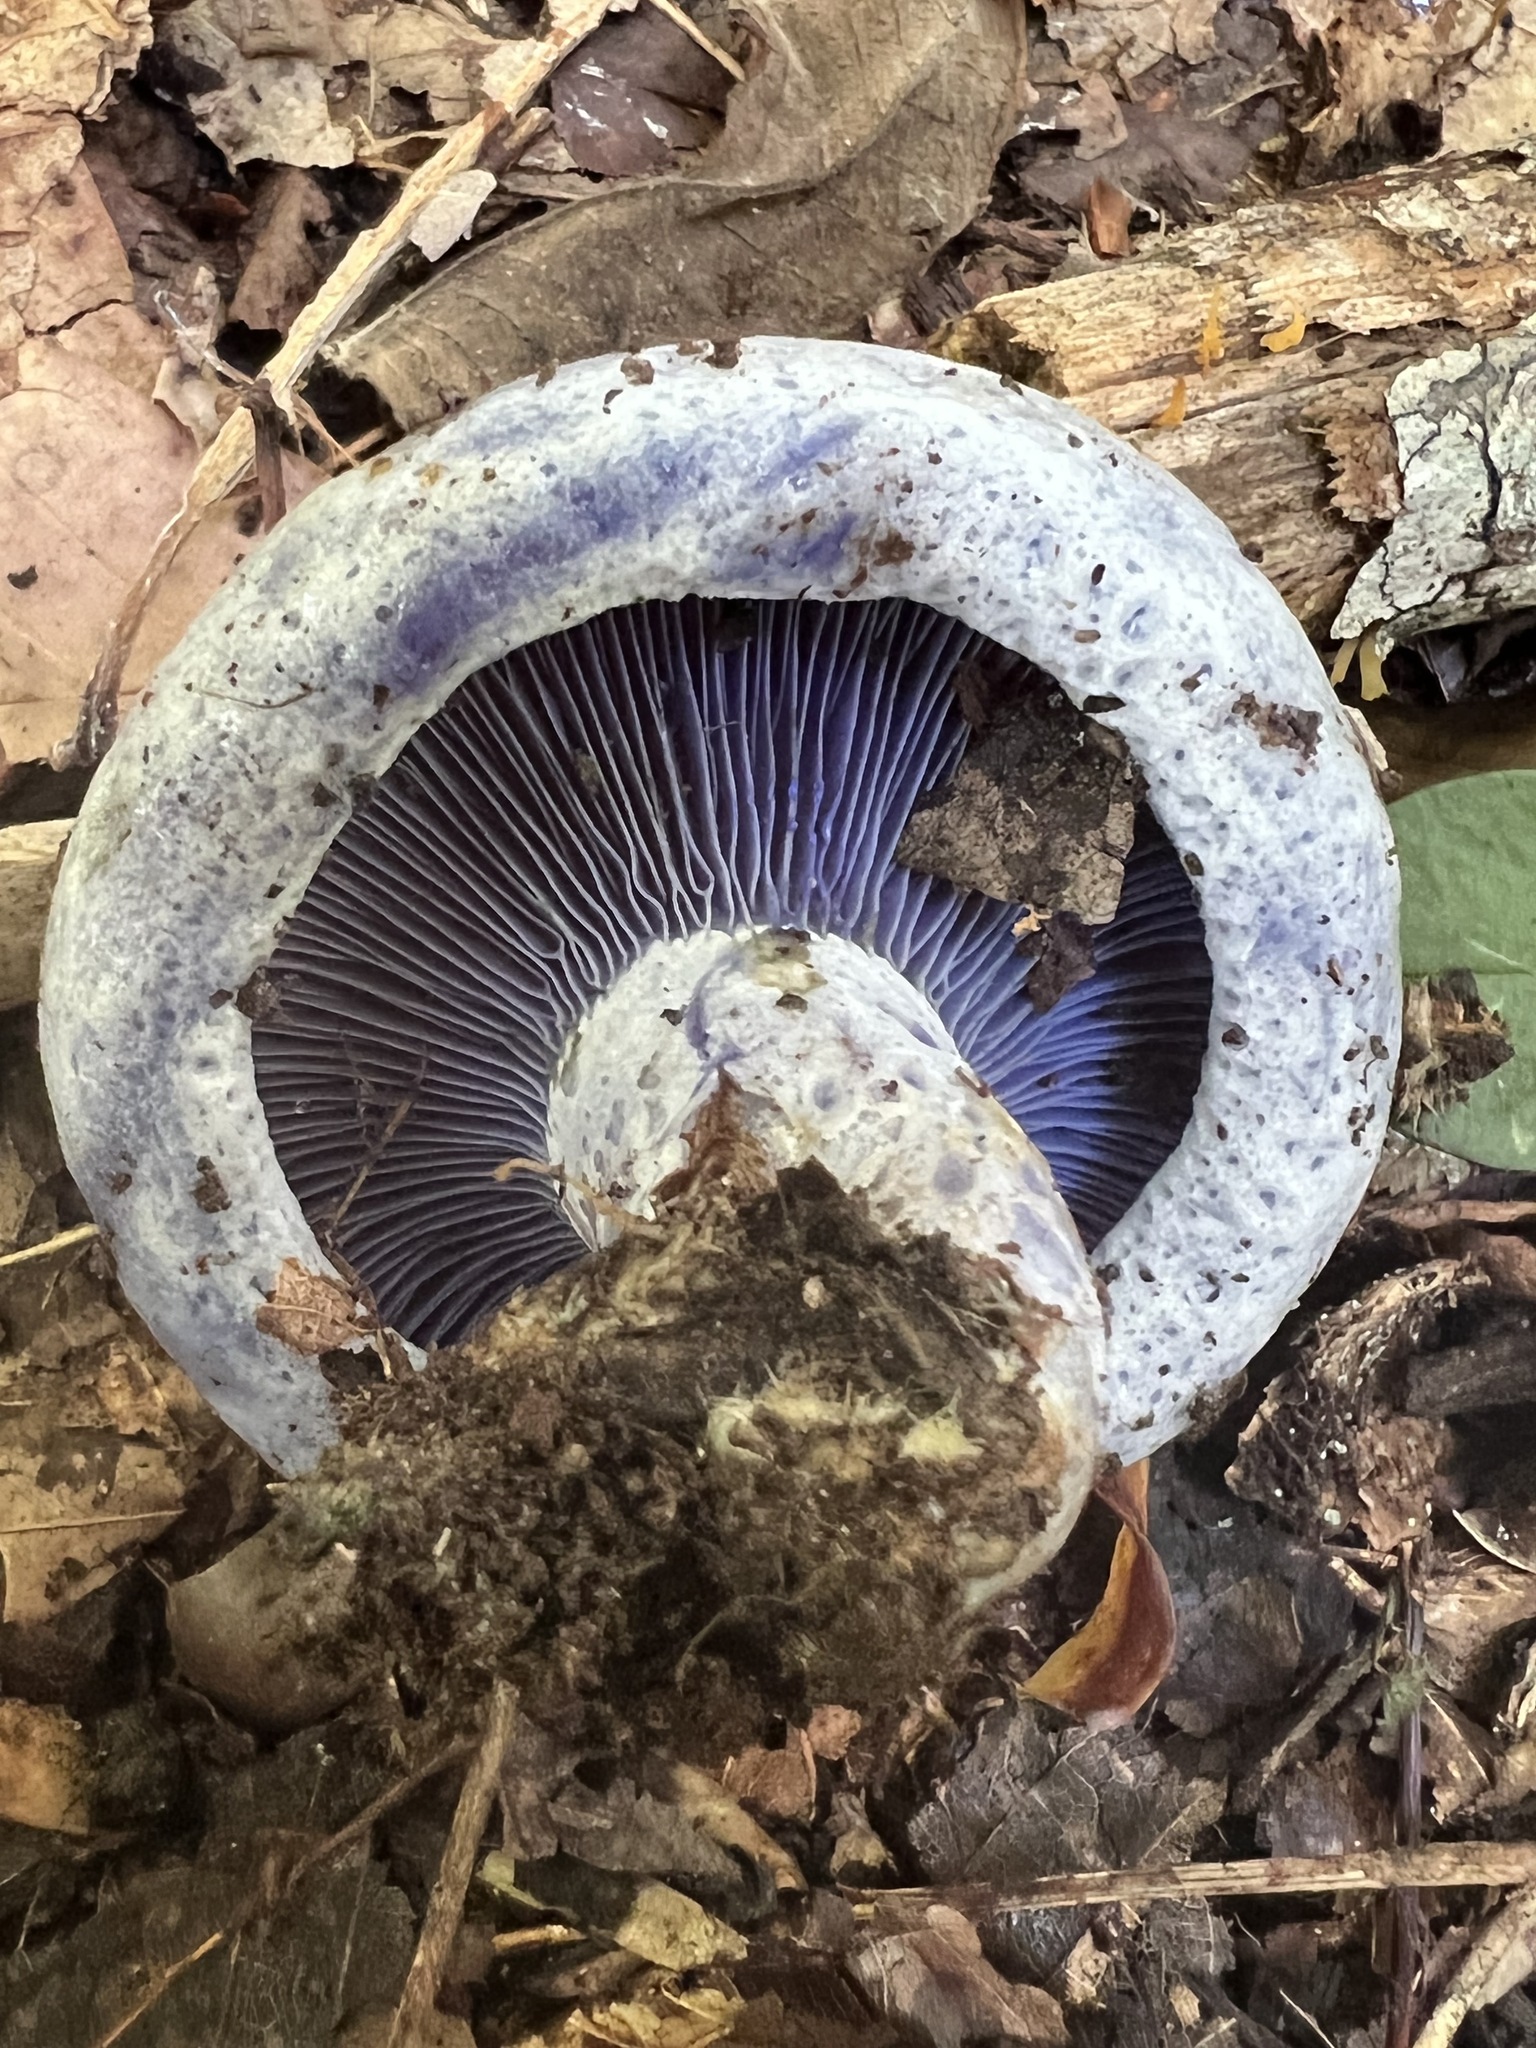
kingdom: Fungi
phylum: Basidiomycota
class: Agaricomycetes
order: Russulales
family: Russulaceae
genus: Lactarius
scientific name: Lactarius indigo
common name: Indigo milk cap
